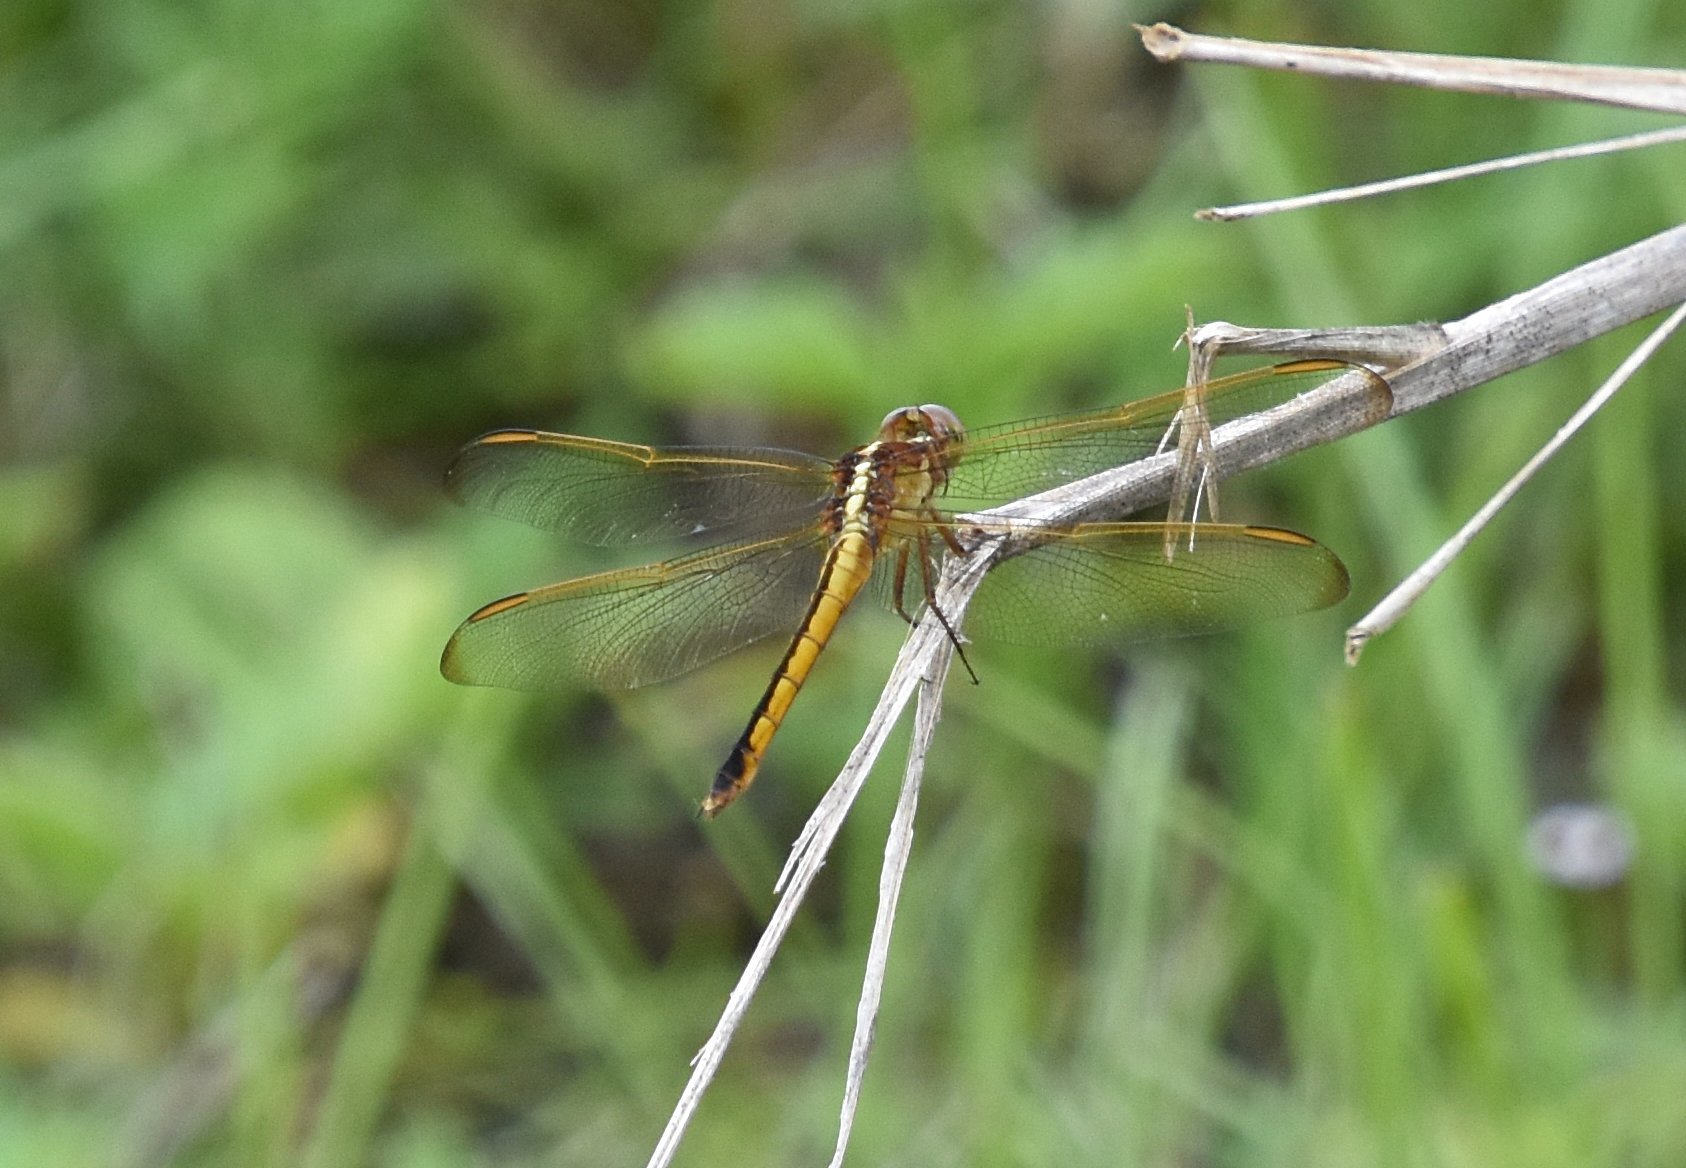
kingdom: Animalia
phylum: Arthropoda
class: Insecta
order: Odonata
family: Libellulidae
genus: Libellula
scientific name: Libellula needhami
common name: Needham's skimmer
